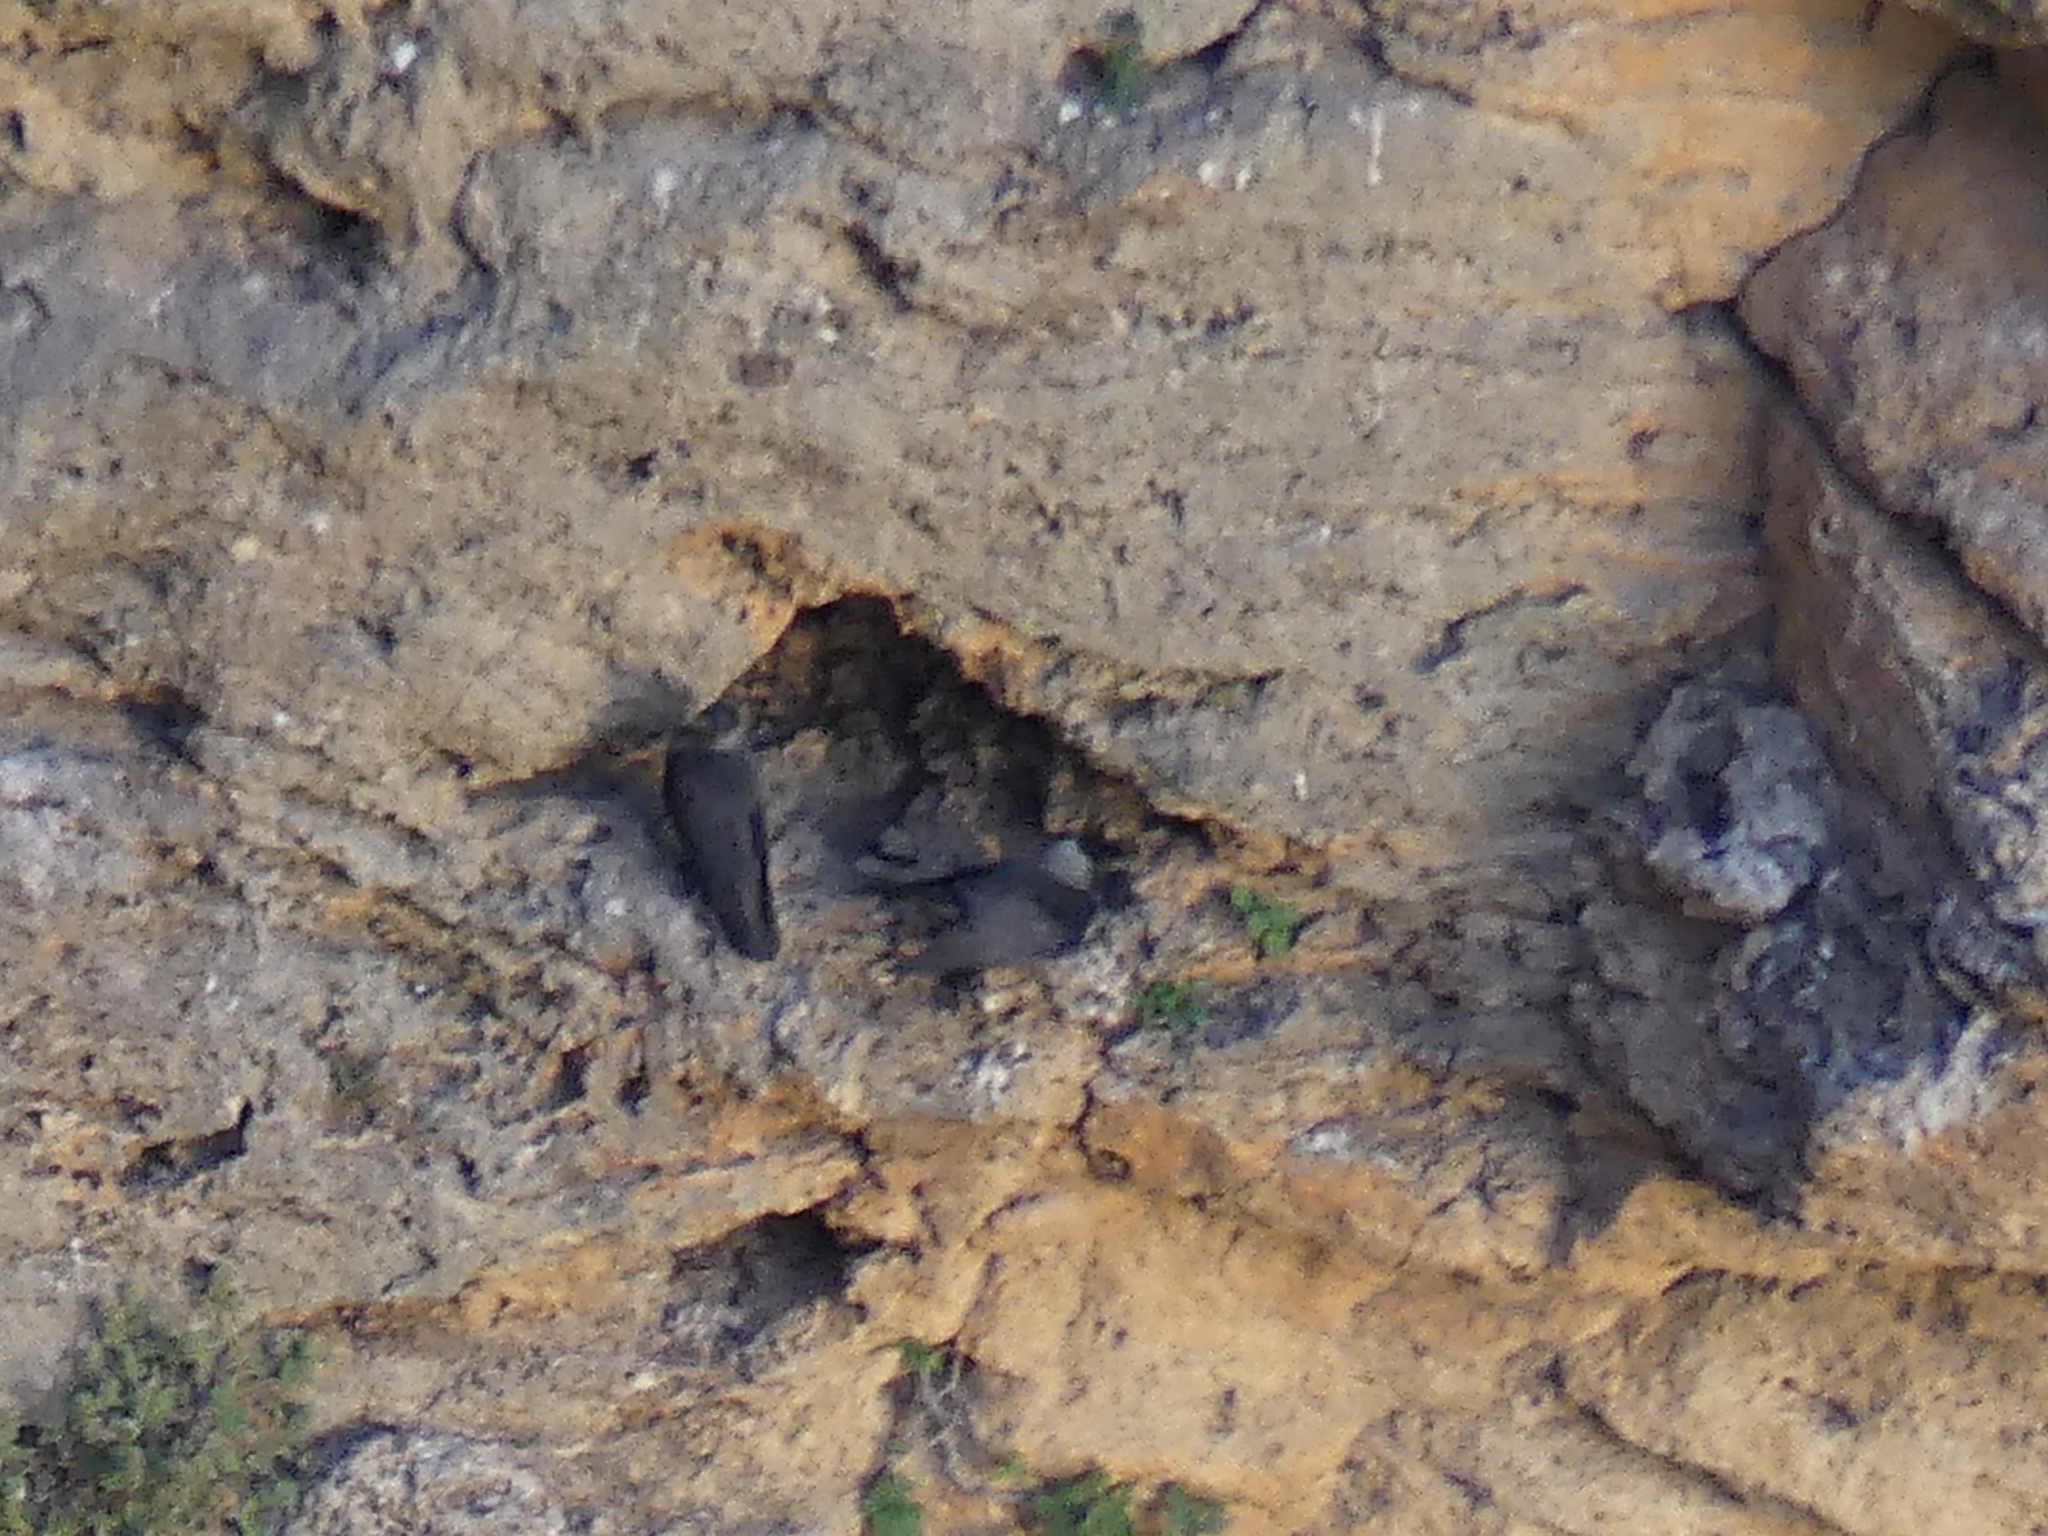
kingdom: Animalia
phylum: Chordata
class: Aves
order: Passeriformes
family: Corvidae
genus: Coloeus
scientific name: Coloeus monedula
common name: Western jackdaw
